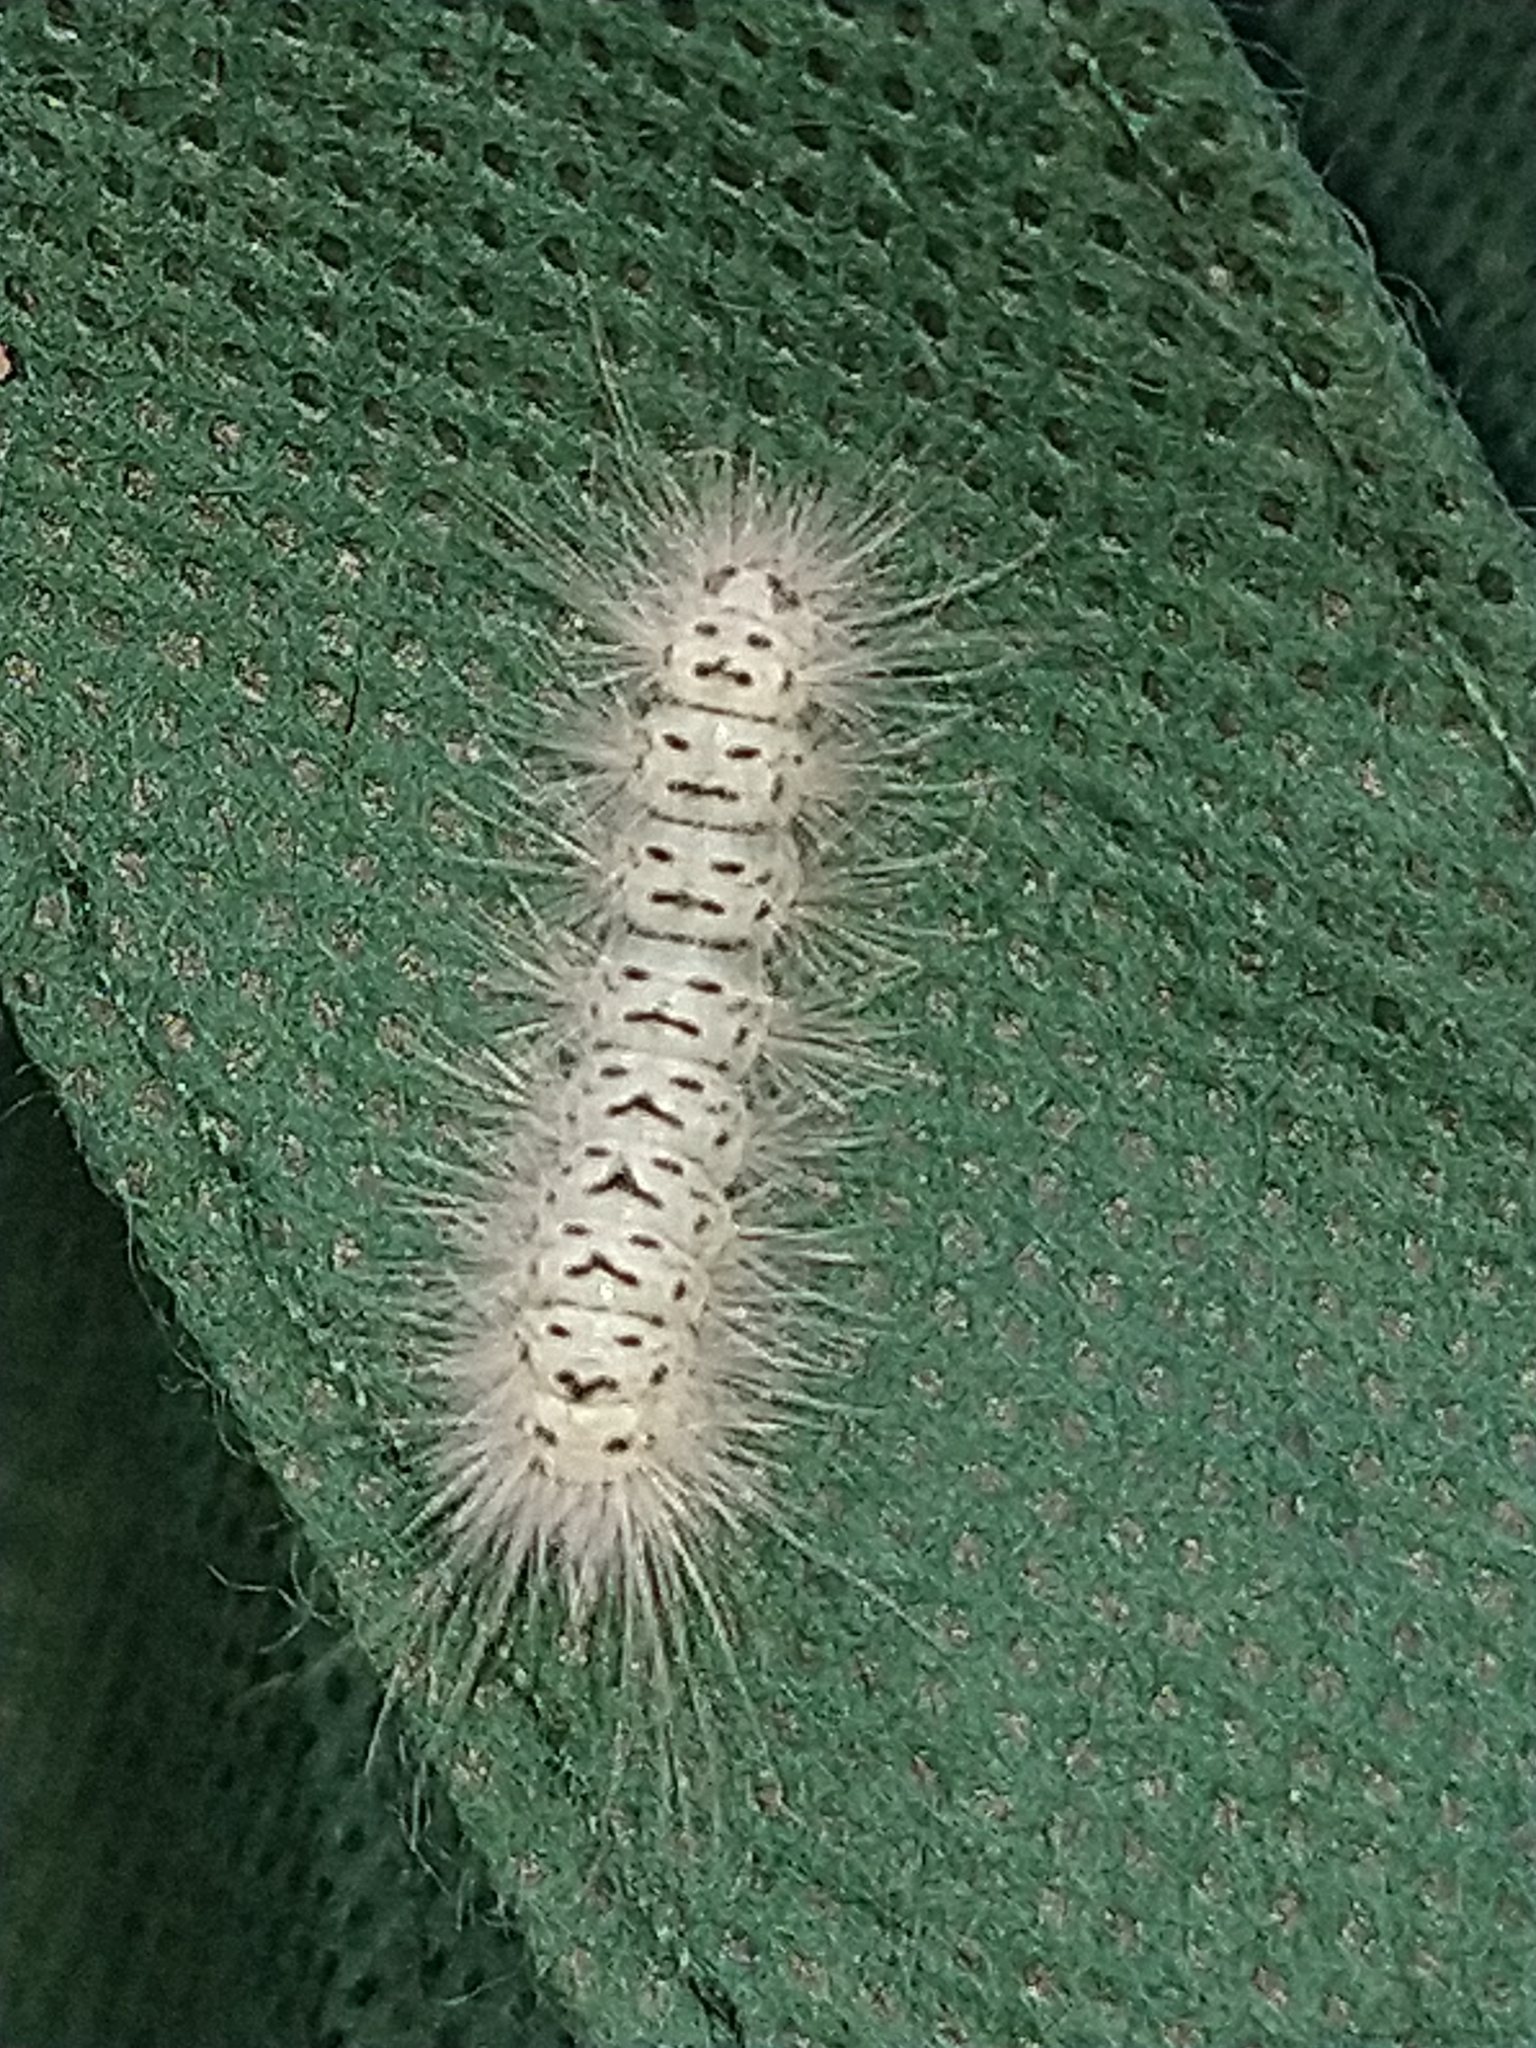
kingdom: Animalia
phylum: Arthropoda
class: Insecta
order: Lepidoptera
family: Erebidae
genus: Lophocampa
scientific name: Lophocampa caryae
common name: Hickory tussock moth
